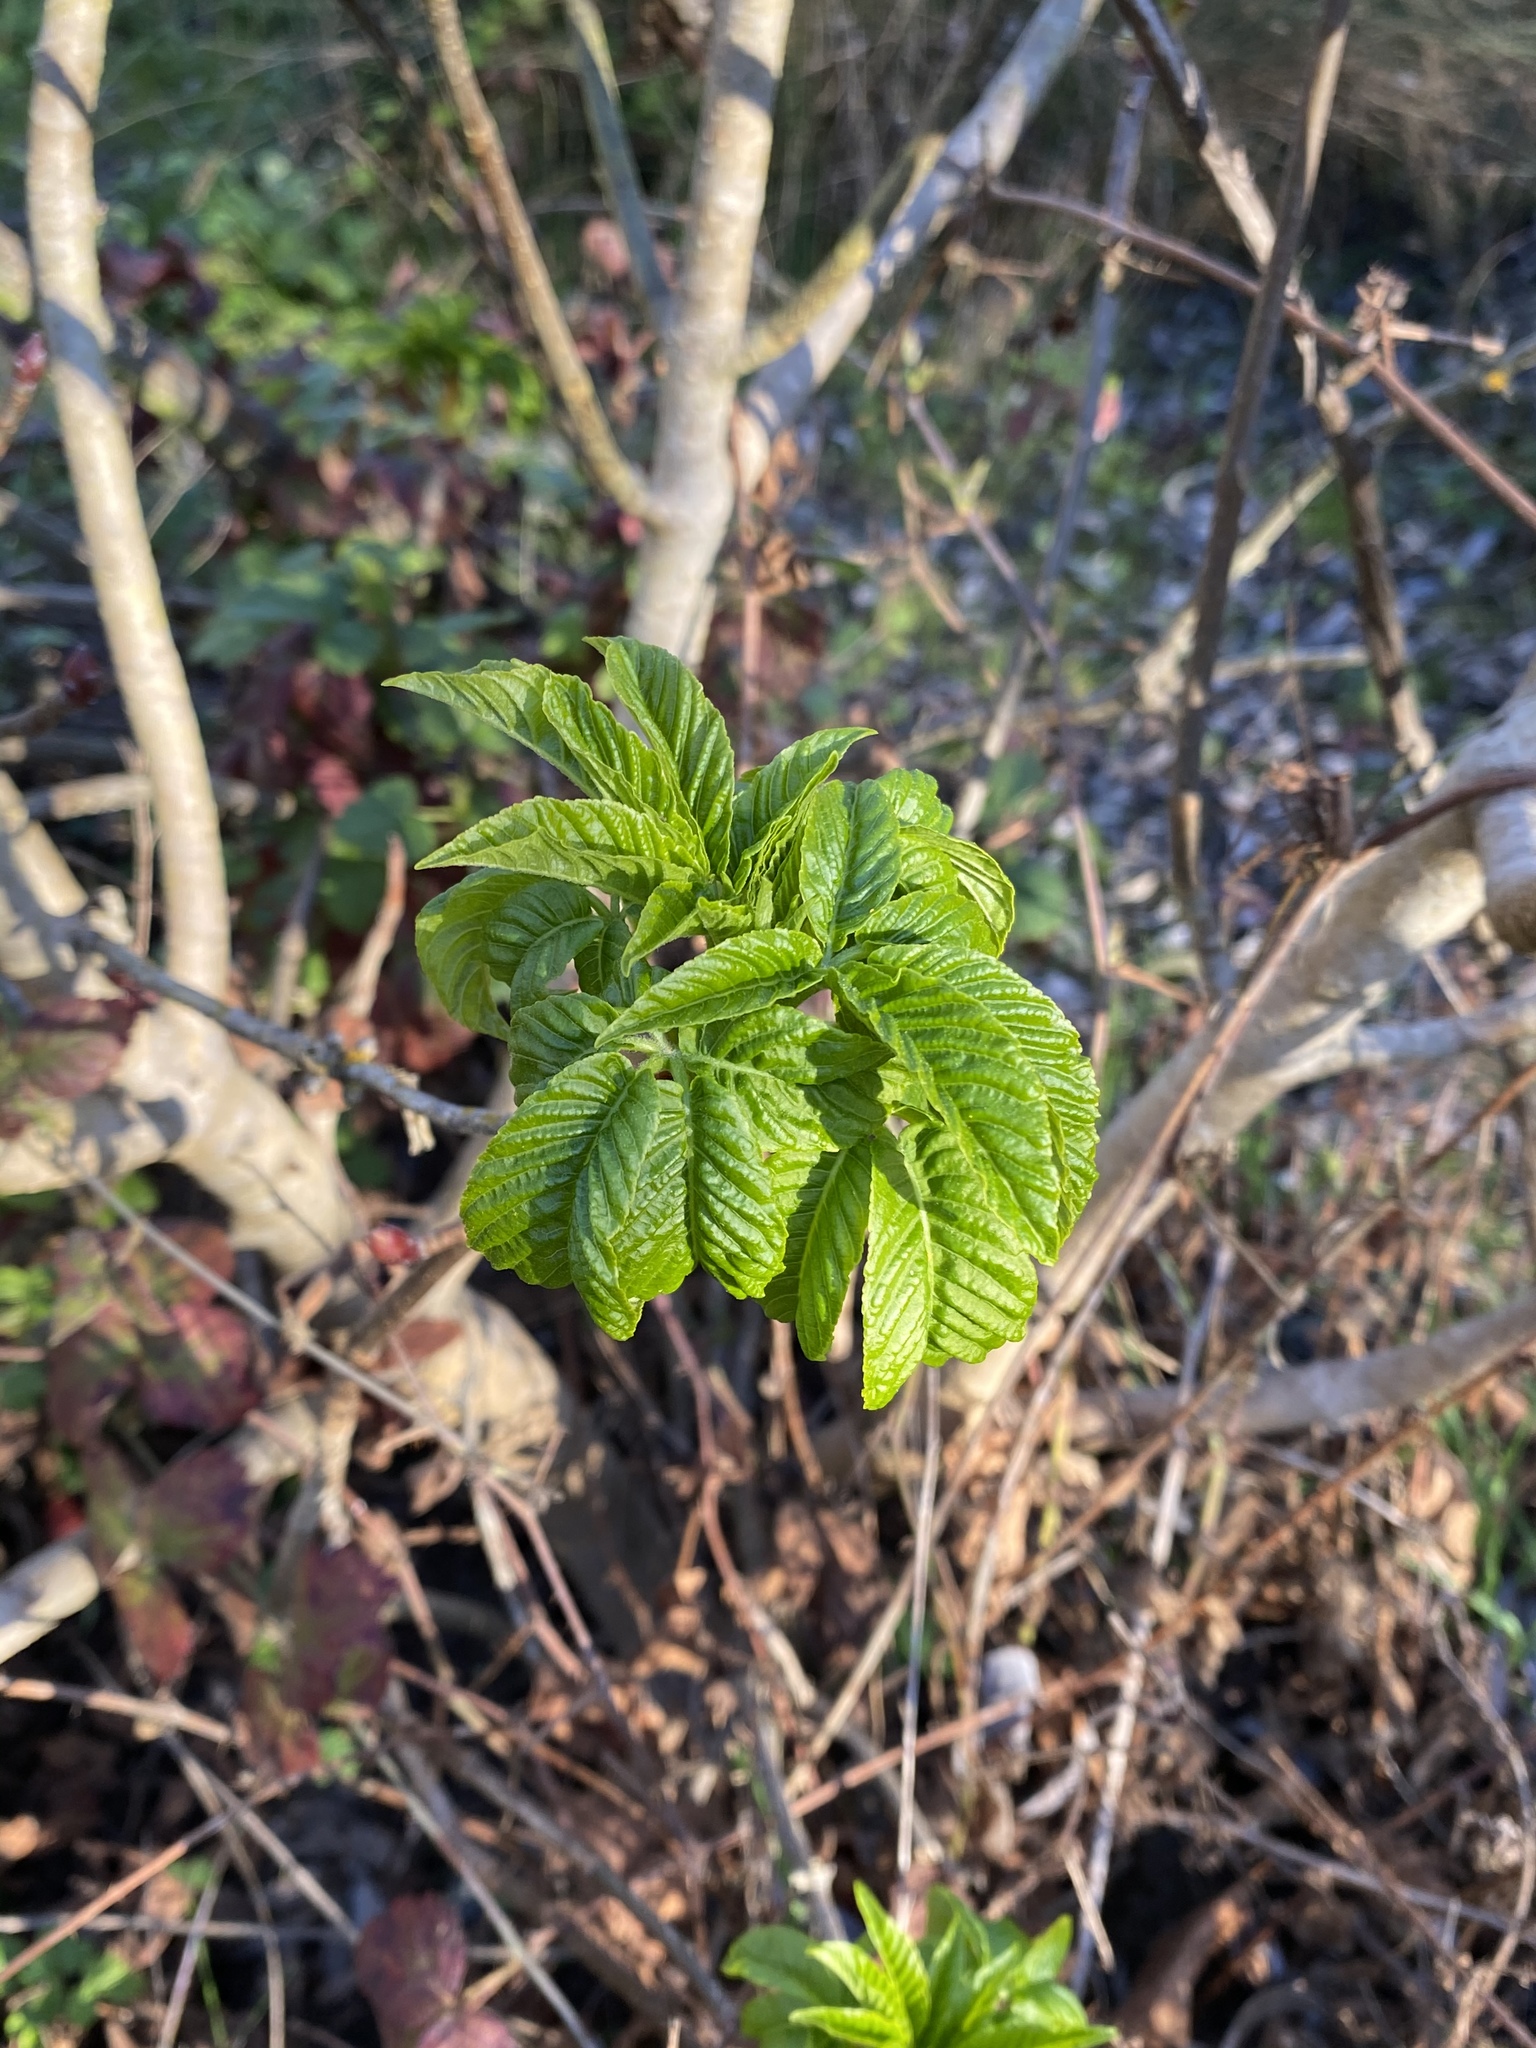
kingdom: Plantae
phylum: Tracheophyta
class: Magnoliopsida
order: Sapindales
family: Sapindaceae
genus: Aesculus
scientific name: Aesculus californica
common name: California buckeye
